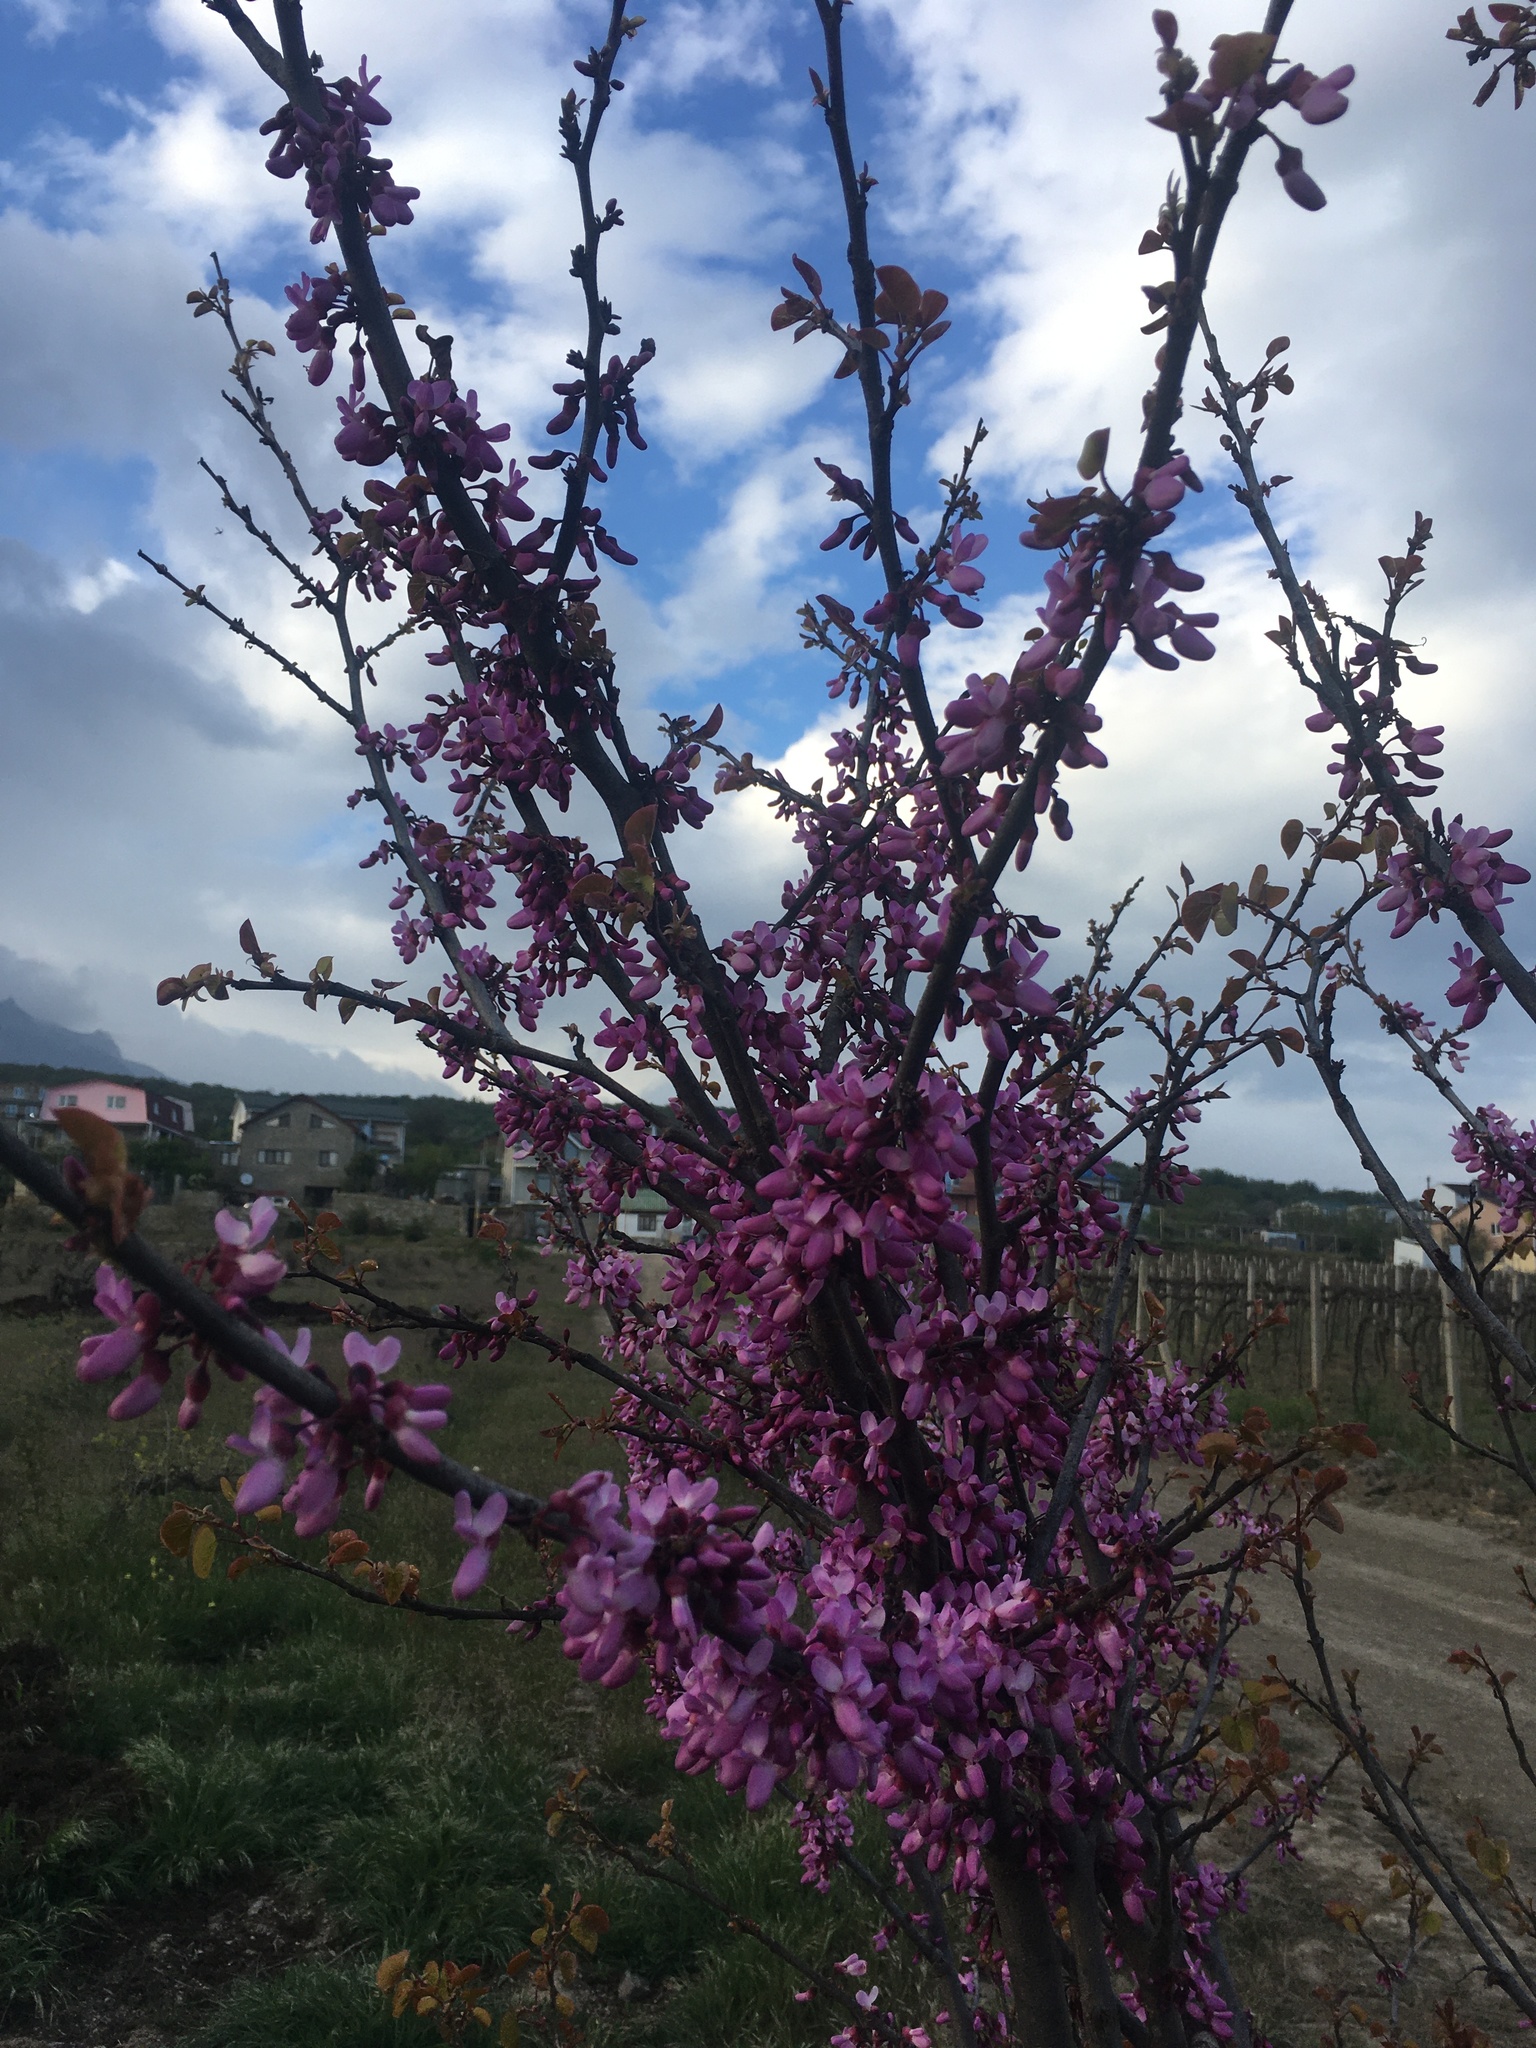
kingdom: Plantae
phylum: Tracheophyta
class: Magnoliopsida
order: Fabales
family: Fabaceae
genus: Cercis
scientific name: Cercis siliquastrum
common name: Judas tree
